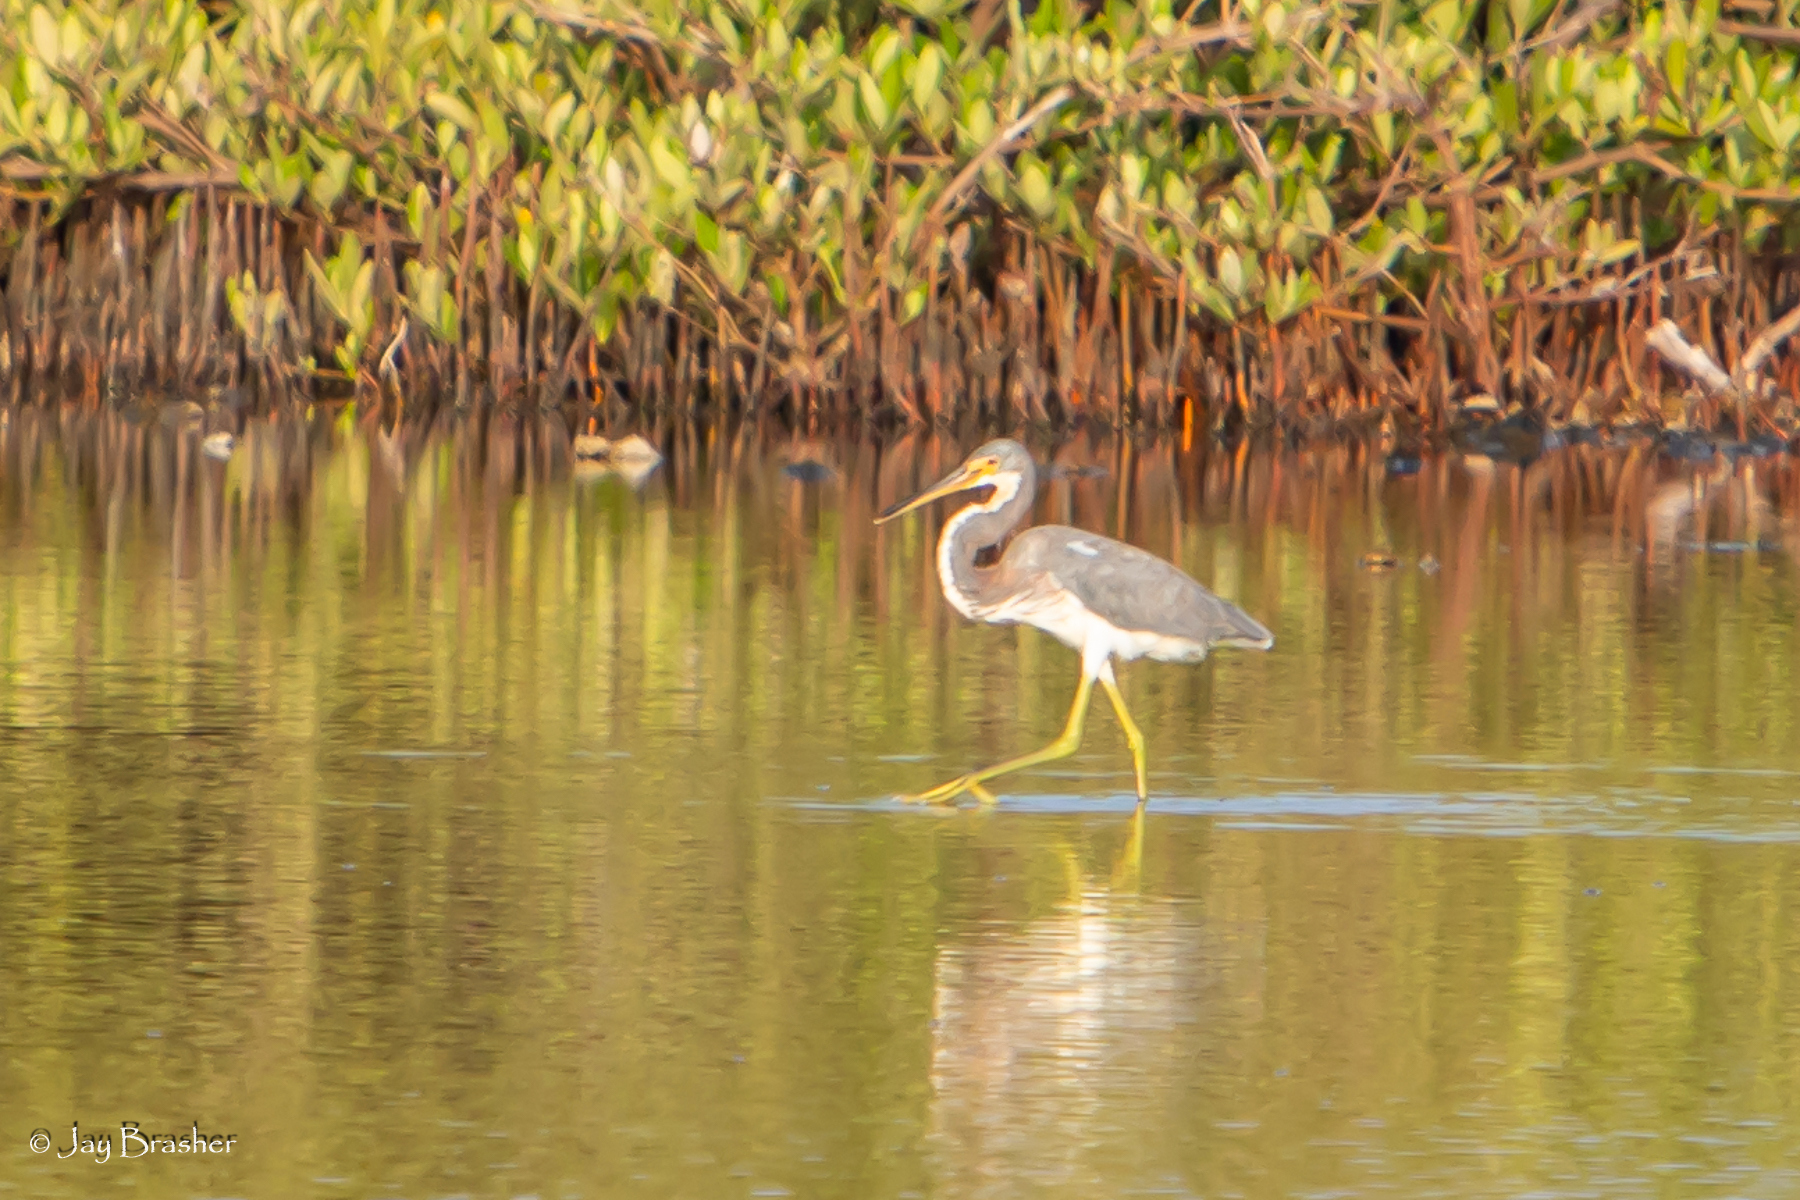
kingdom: Animalia
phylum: Chordata
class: Aves
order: Pelecaniformes
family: Ardeidae
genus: Egretta
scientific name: Egretta tricolor
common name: Tricolored heron
